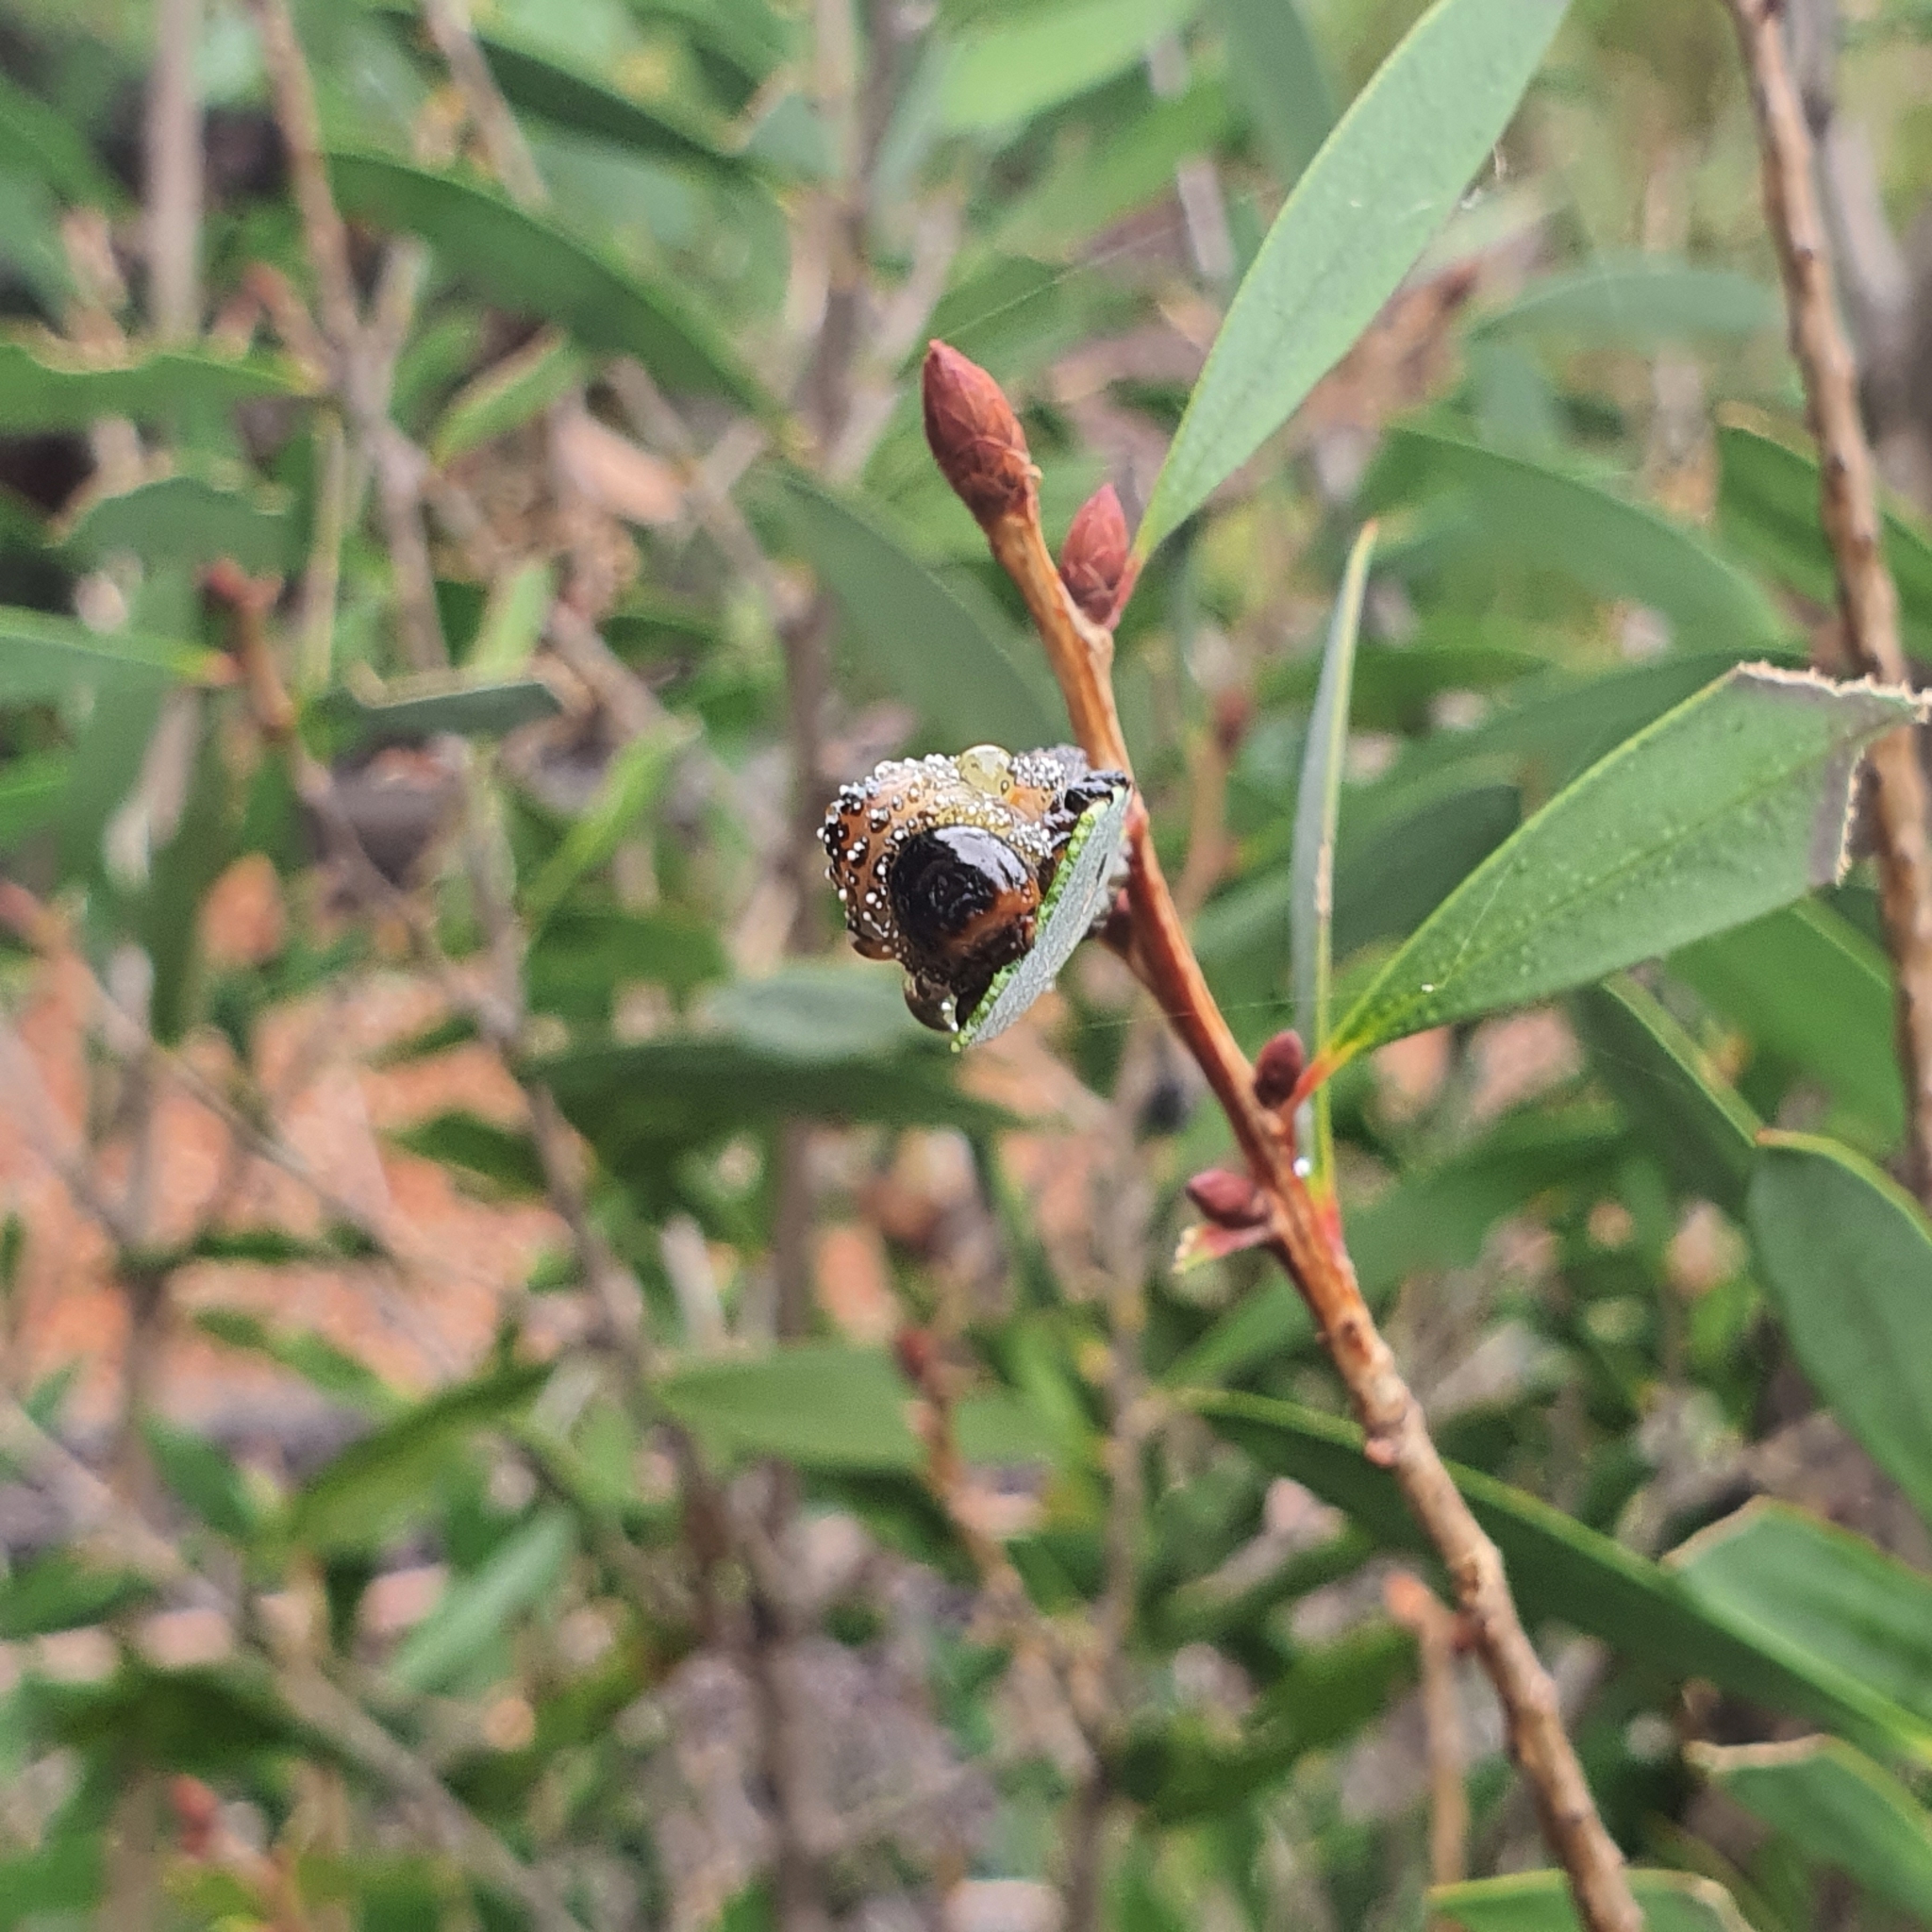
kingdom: Animalia
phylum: Arthropoda
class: Insecta
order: Hymenoptera
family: Pergidae
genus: Pterygophorus
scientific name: Pterygophorus
